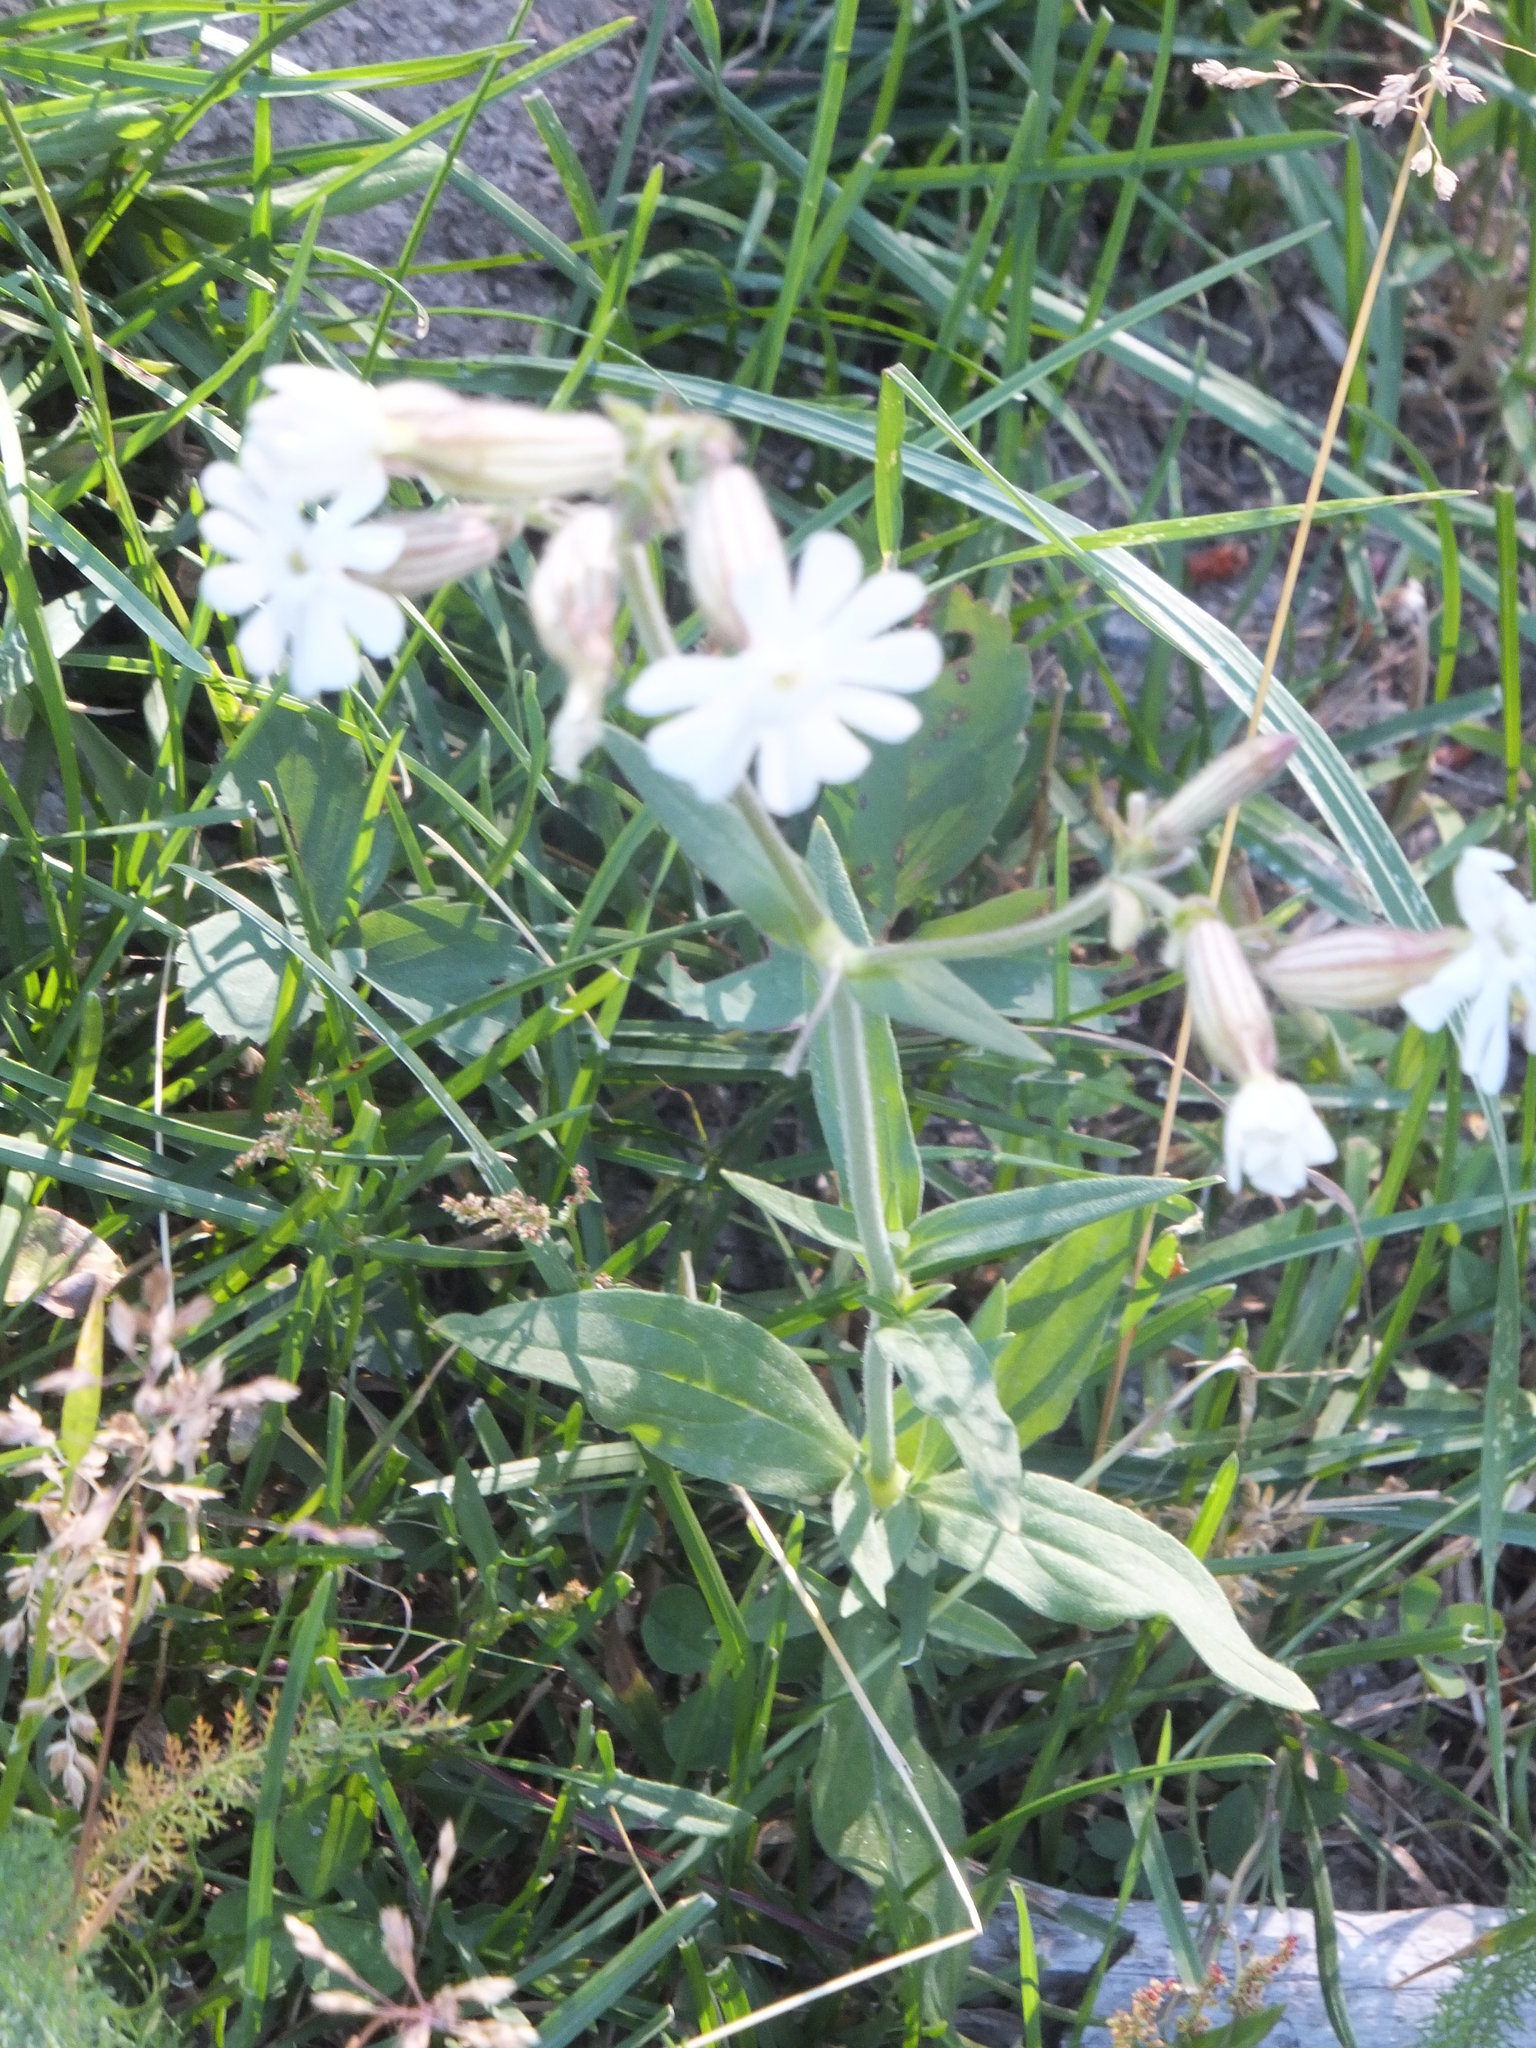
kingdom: Plantae
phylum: Tracheophyta
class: Magnoliopsida
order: Caryophyllales
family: Caryophyllaceae
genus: Silene
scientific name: Silene latifolia
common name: White campion
